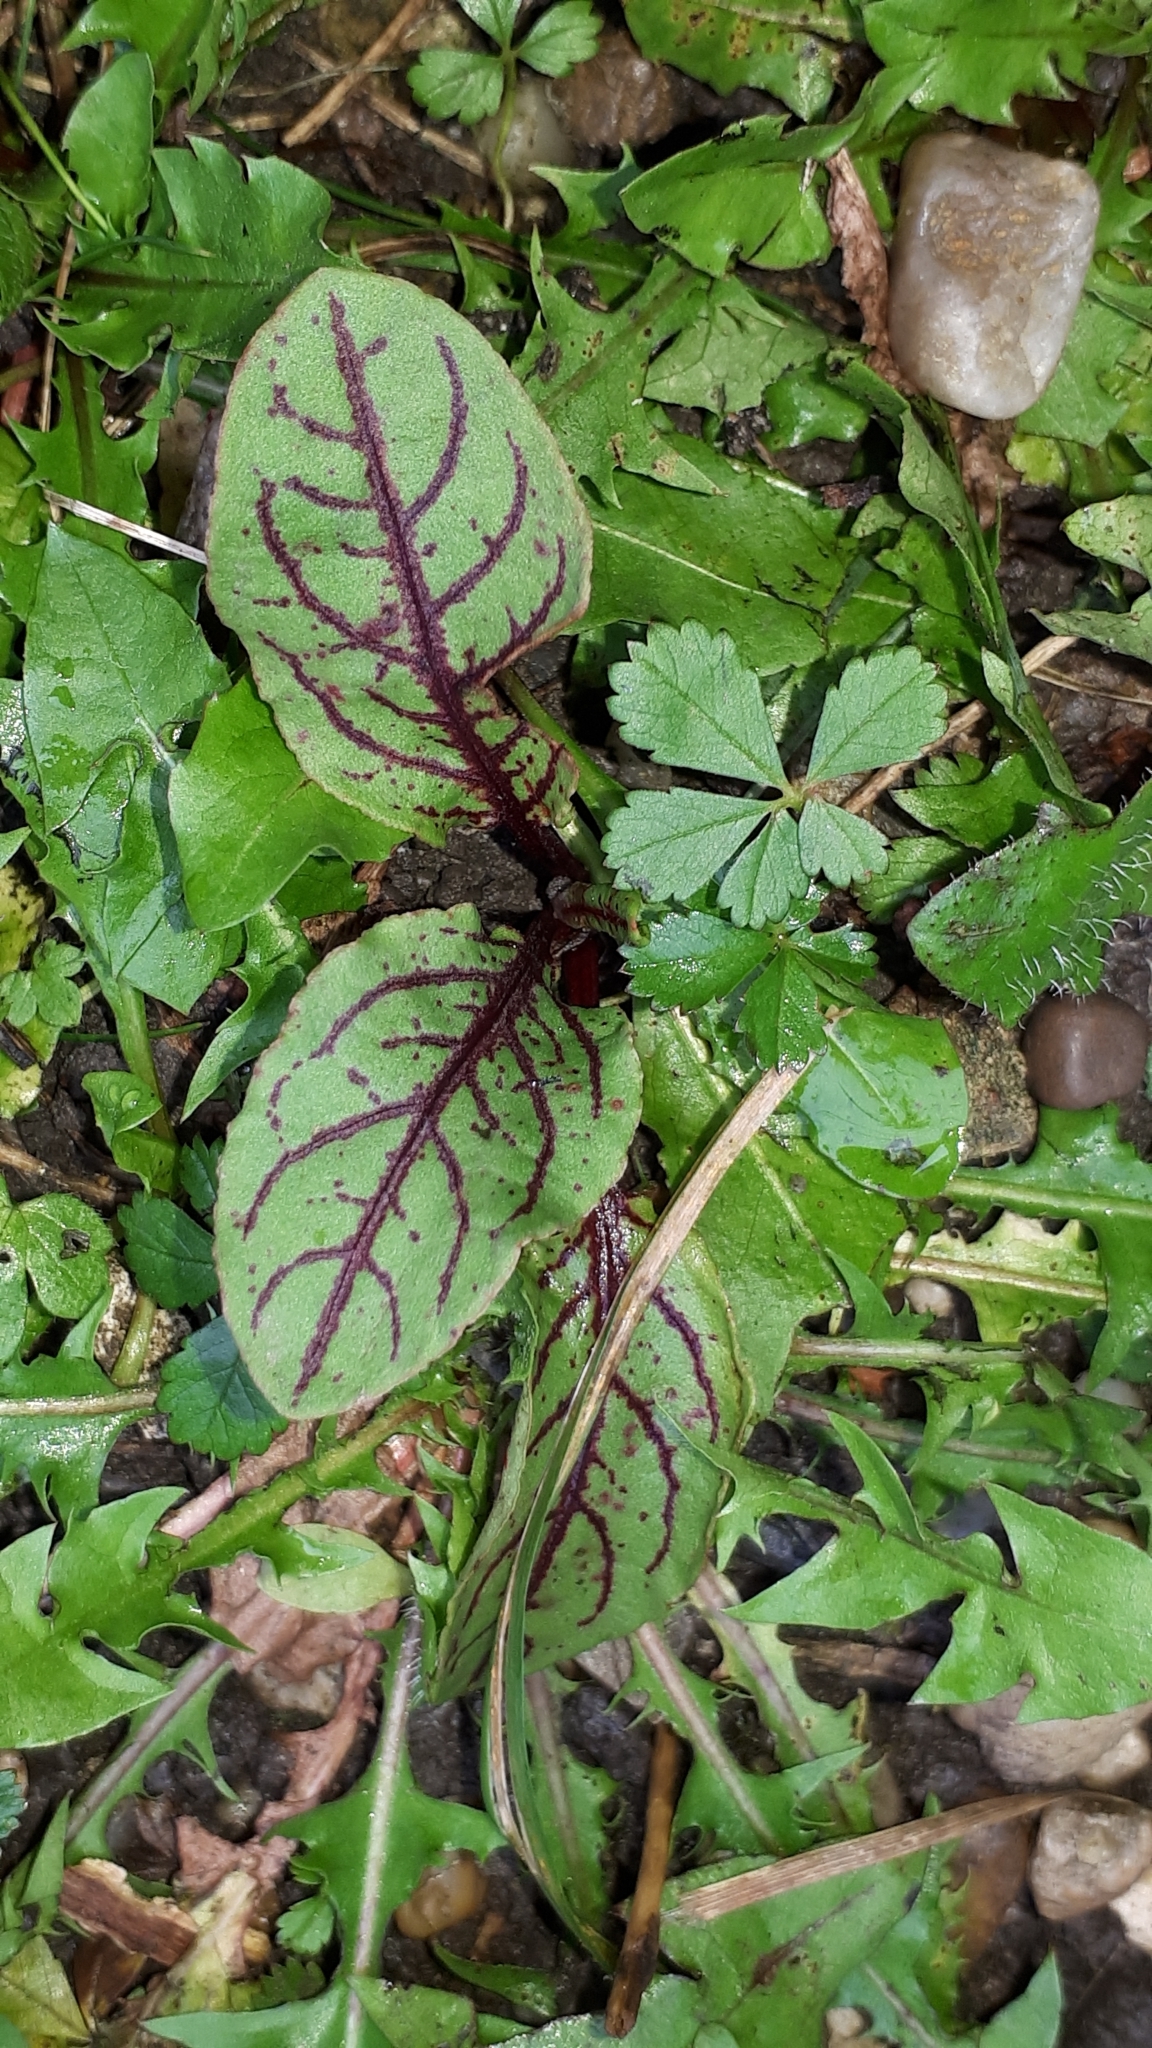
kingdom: Plantae
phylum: Tracheophyta
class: Magnoliopsida
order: Caryophyllales
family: Polygonaceae
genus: Rumex
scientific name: Rumex sanguineus
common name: Wood dock
